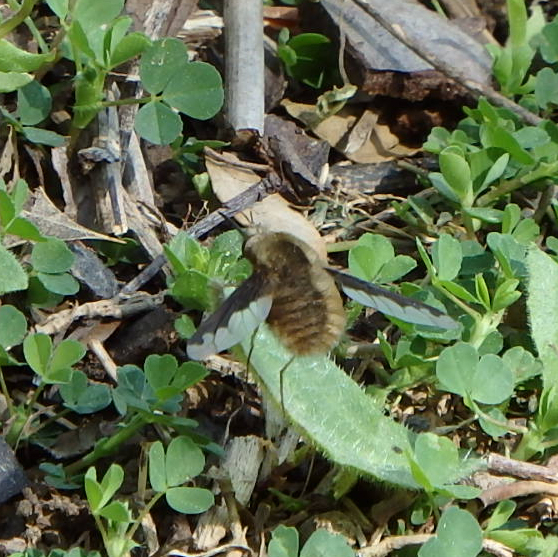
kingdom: Animalia
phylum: Arthropoda
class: Insecta
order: Diptera
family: Bombyliidae
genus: Bombylius
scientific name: Bombylius major
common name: Bee fly
